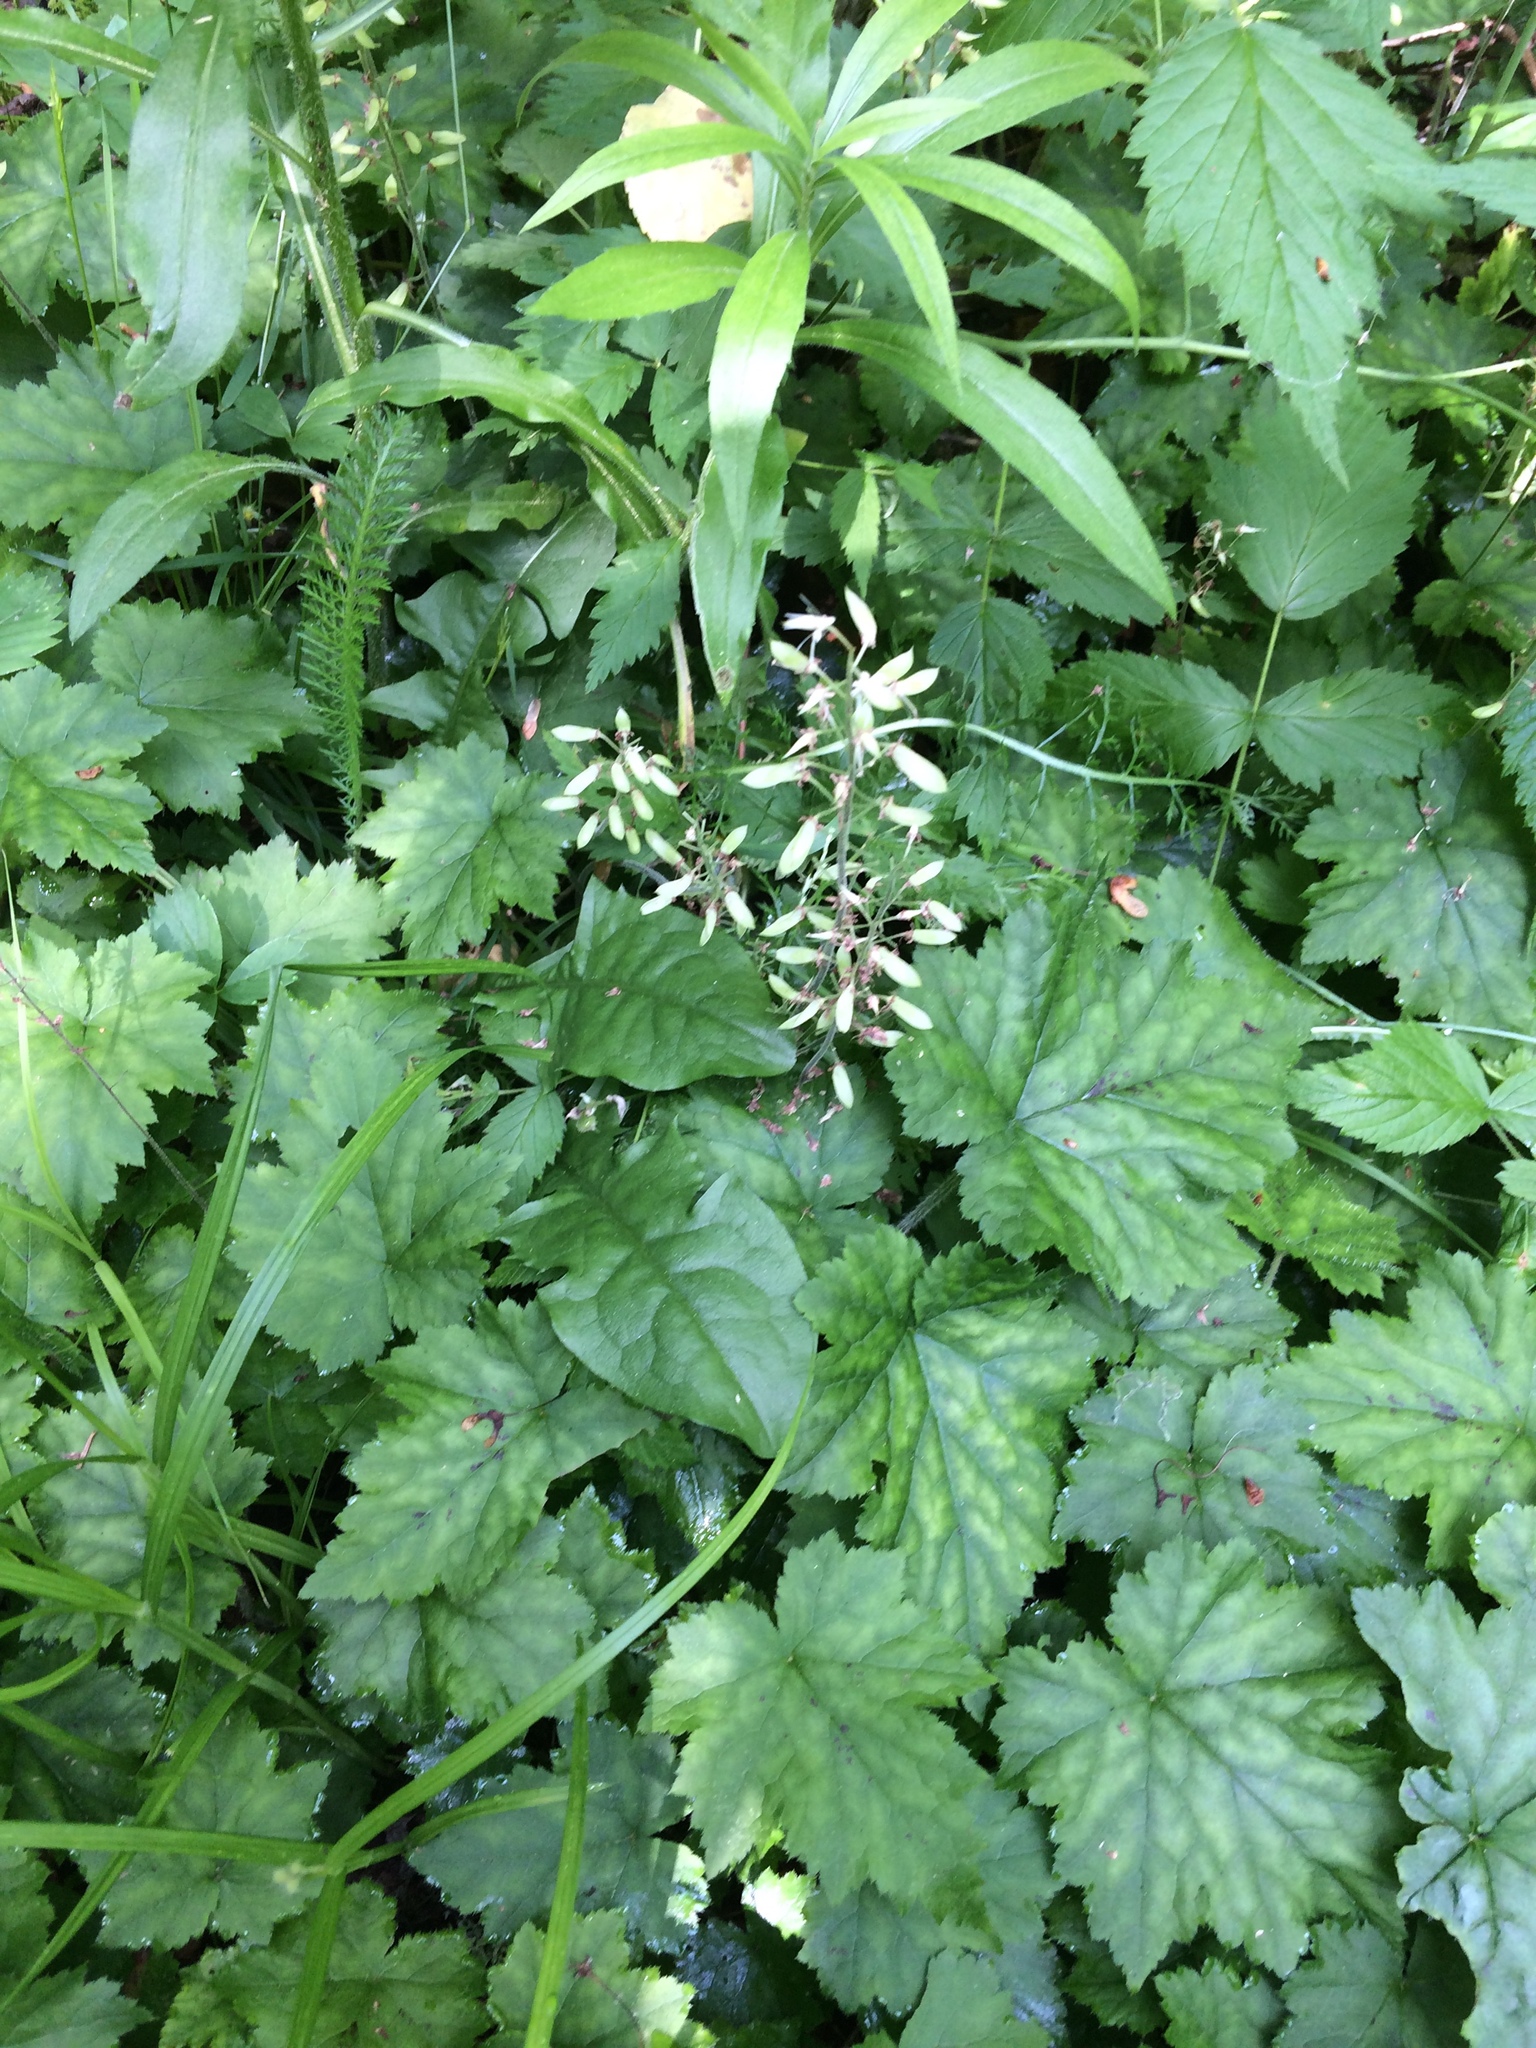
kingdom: Plantae
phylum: Tracheophyta
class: Magnoliopsida
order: Saxifragales
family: Saxifragaceae
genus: Tiarella
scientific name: Tiarella stolonifera
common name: Stoloniferous foamflower
